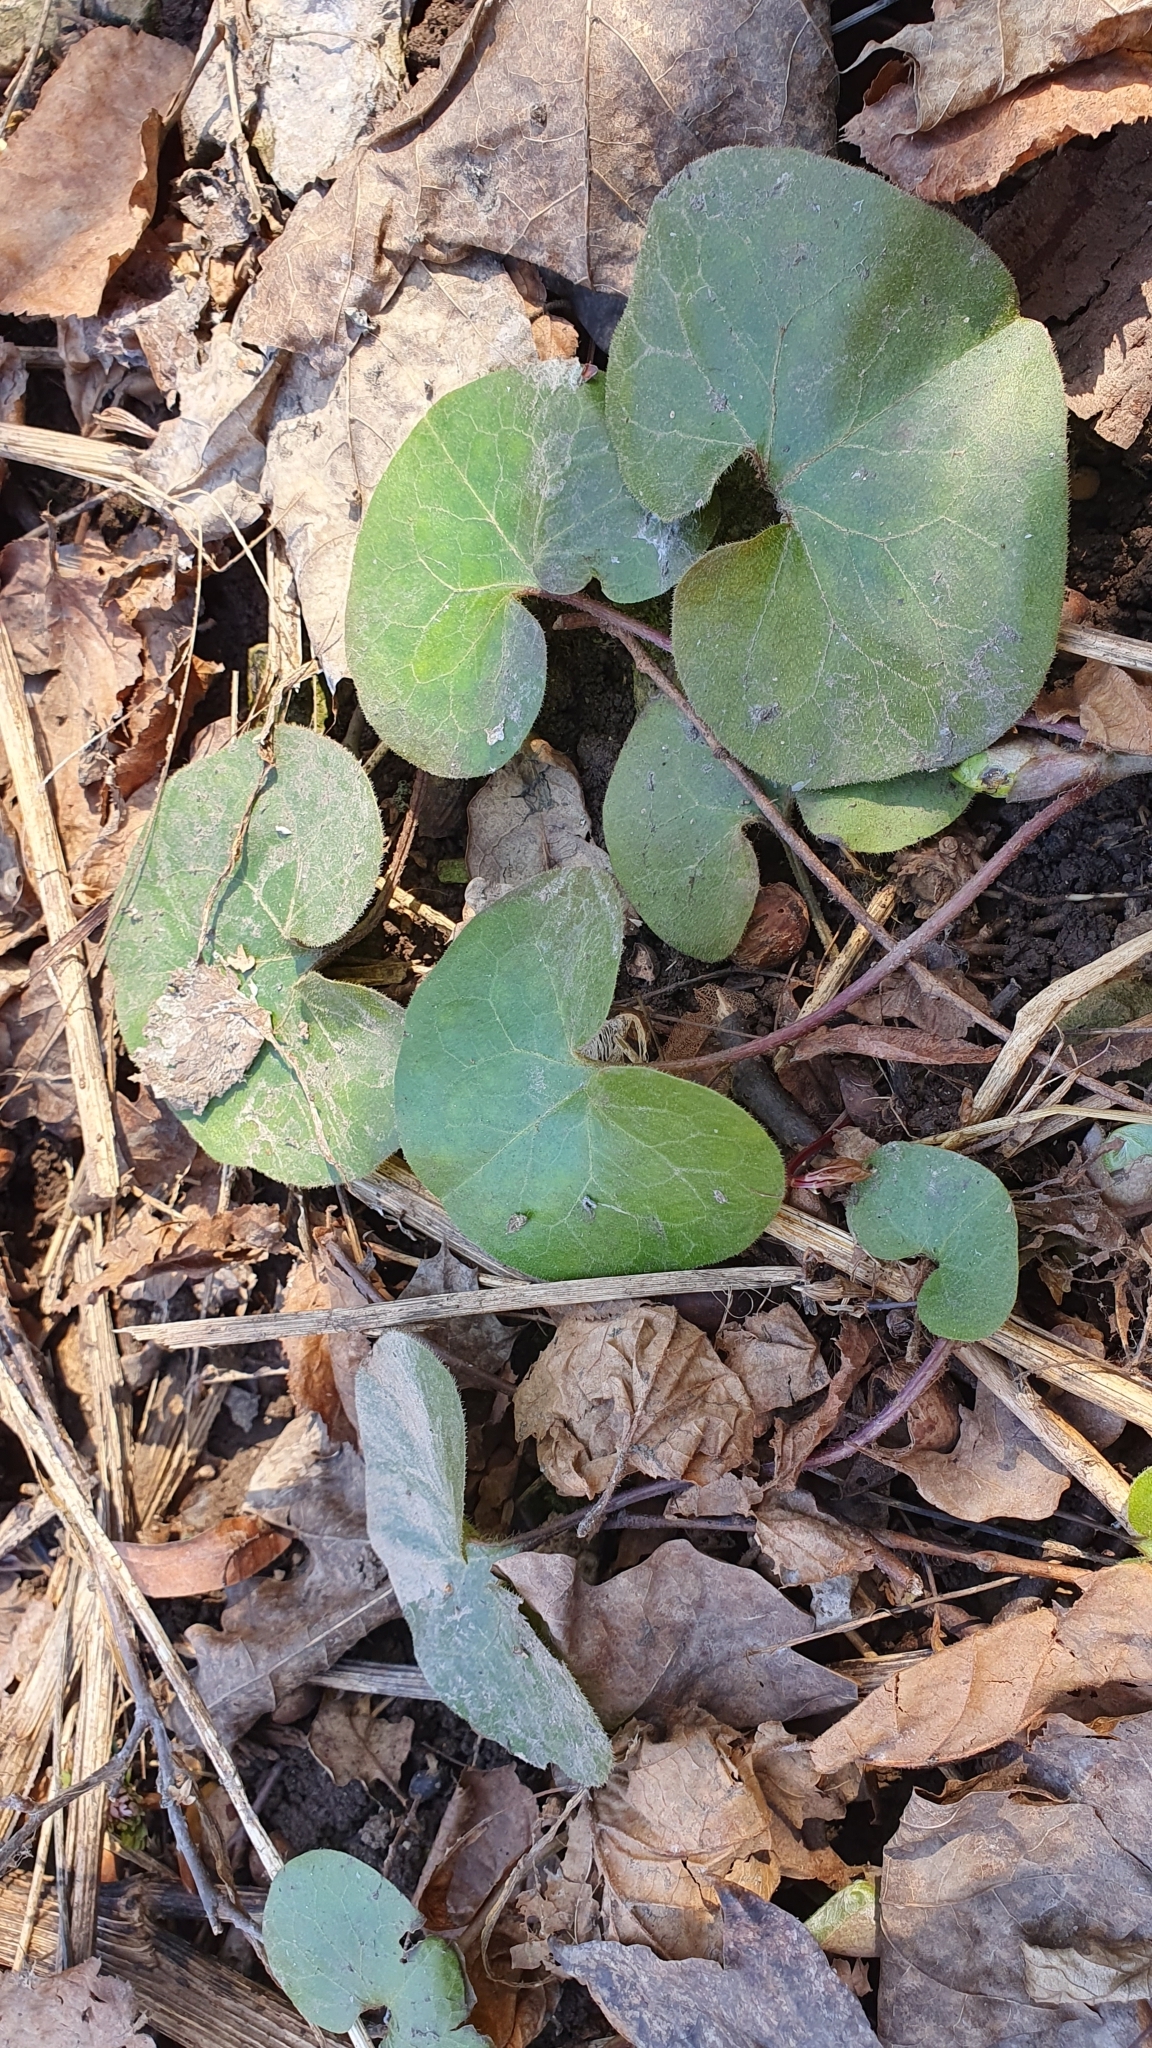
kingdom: Plantae
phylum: Tracheophyta
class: Magnoliopsida
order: Piperales
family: Aristolochiaceae
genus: Asarum
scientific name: Asarum europaeum
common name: Asarabacca
